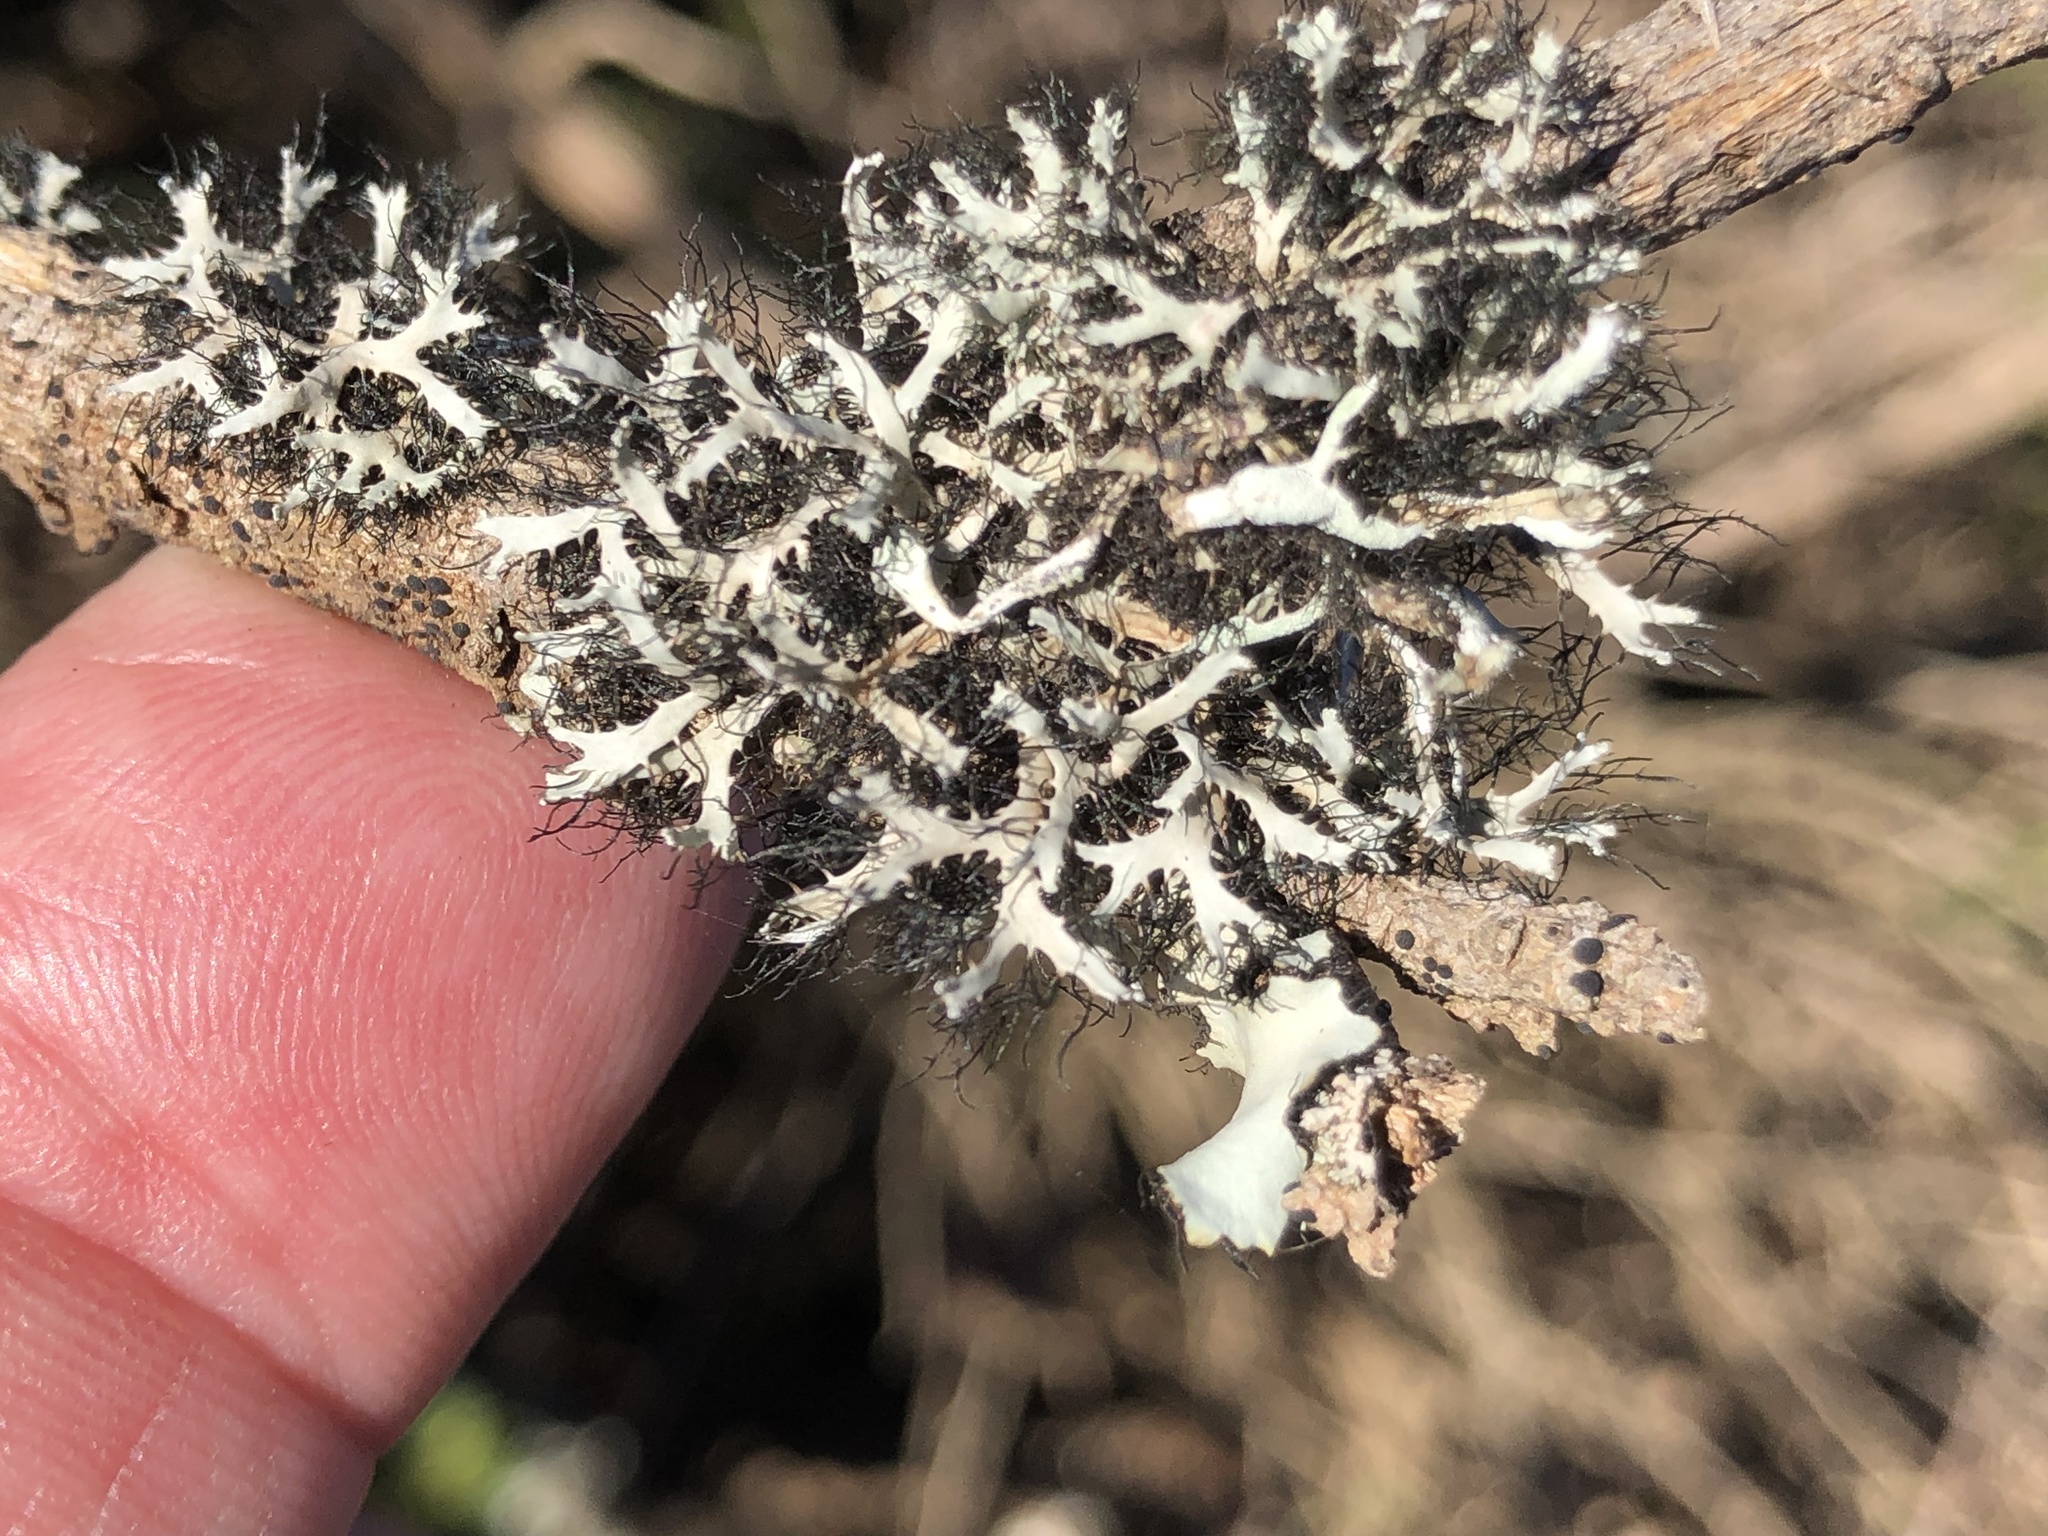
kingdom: Fungi
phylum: Ascomycota
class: Lecanoromycetes
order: Caliciales
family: Physciaceae
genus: Leucodermia
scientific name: Leucodermia leucomelos
